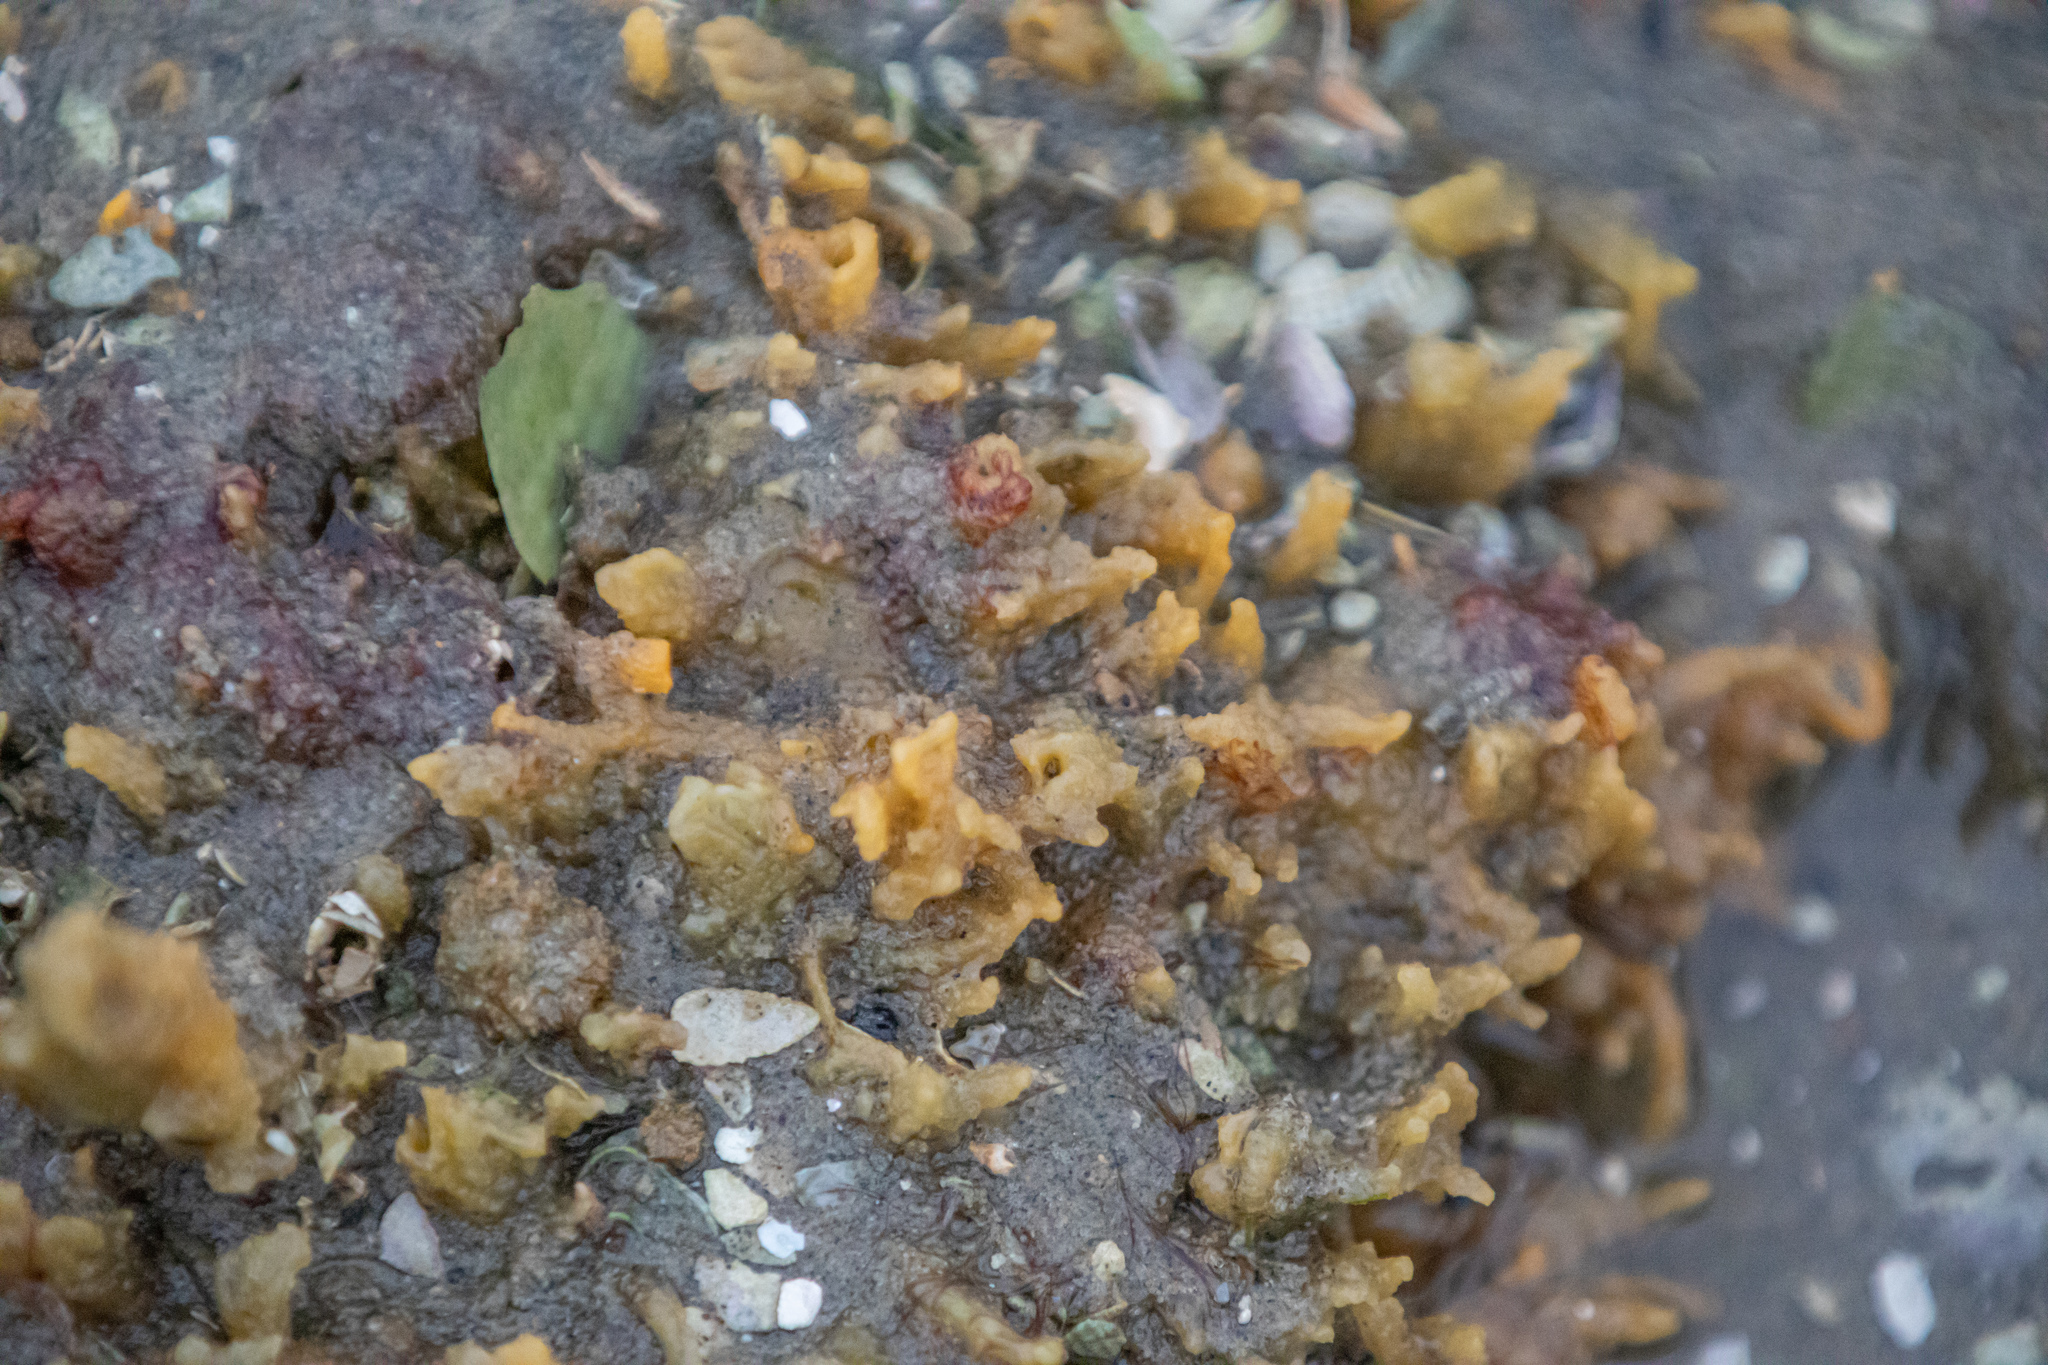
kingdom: Animalia
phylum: Porifera
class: Demospongiae
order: Suberitida
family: Halichondriidae
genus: Ciocalypta
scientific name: Ciocalypta polymastia
